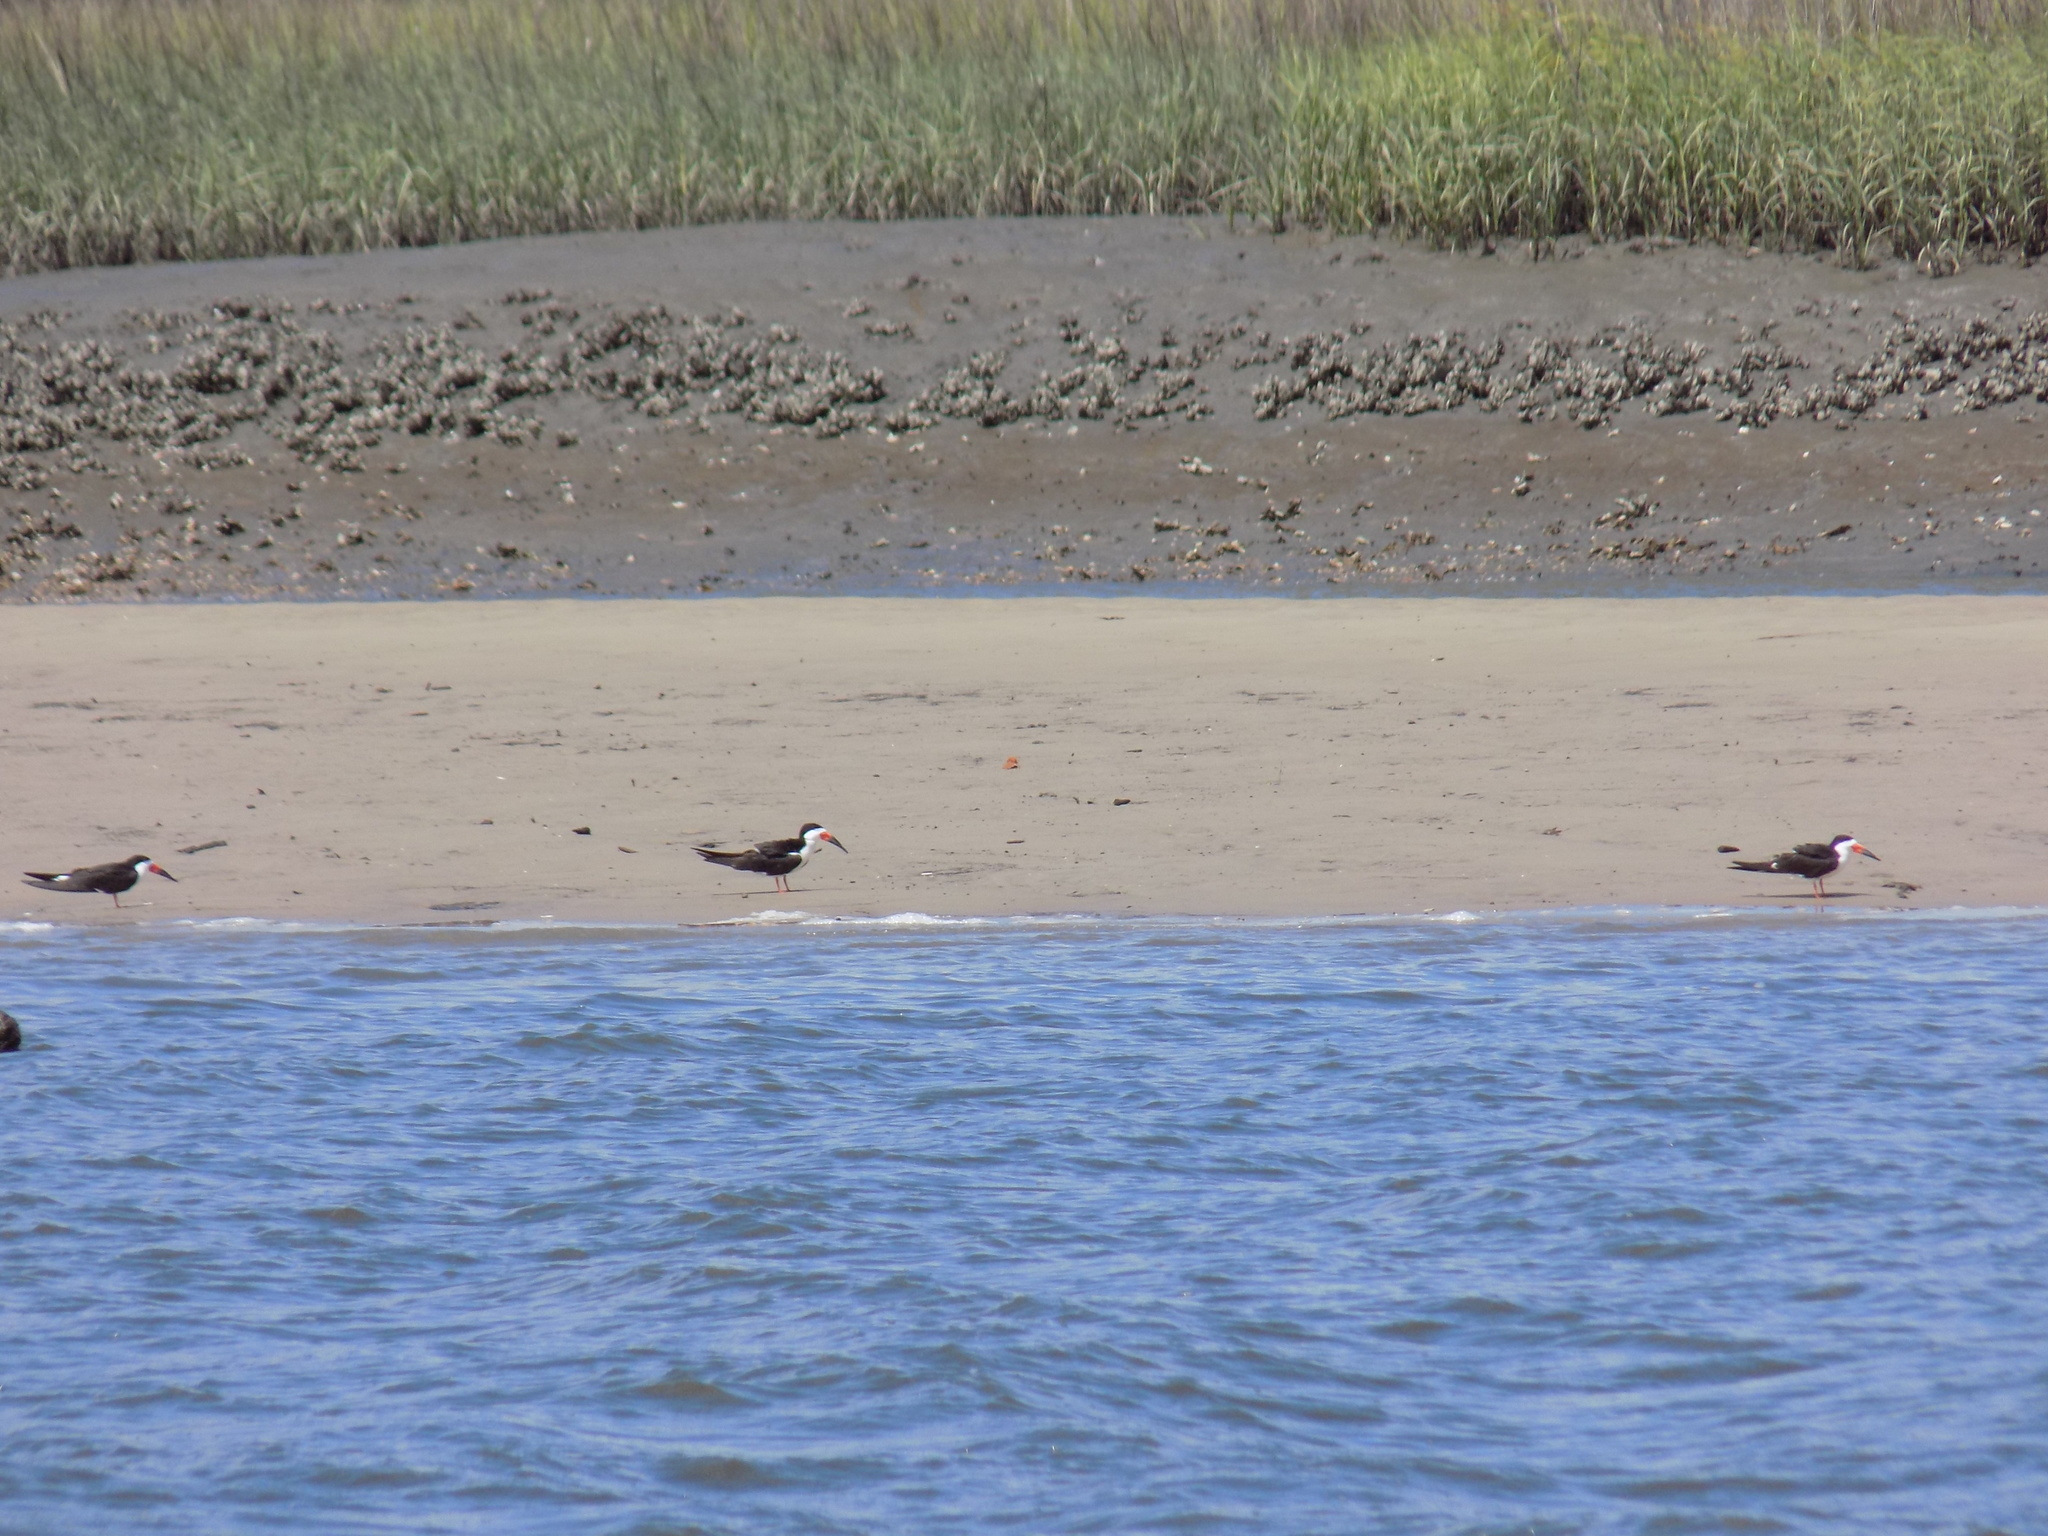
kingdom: Animalia
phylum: Chordata
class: Aves
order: Charadriiformes
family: Laridae
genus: Rynchops
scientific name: Rynchops niger
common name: Black skimmer
